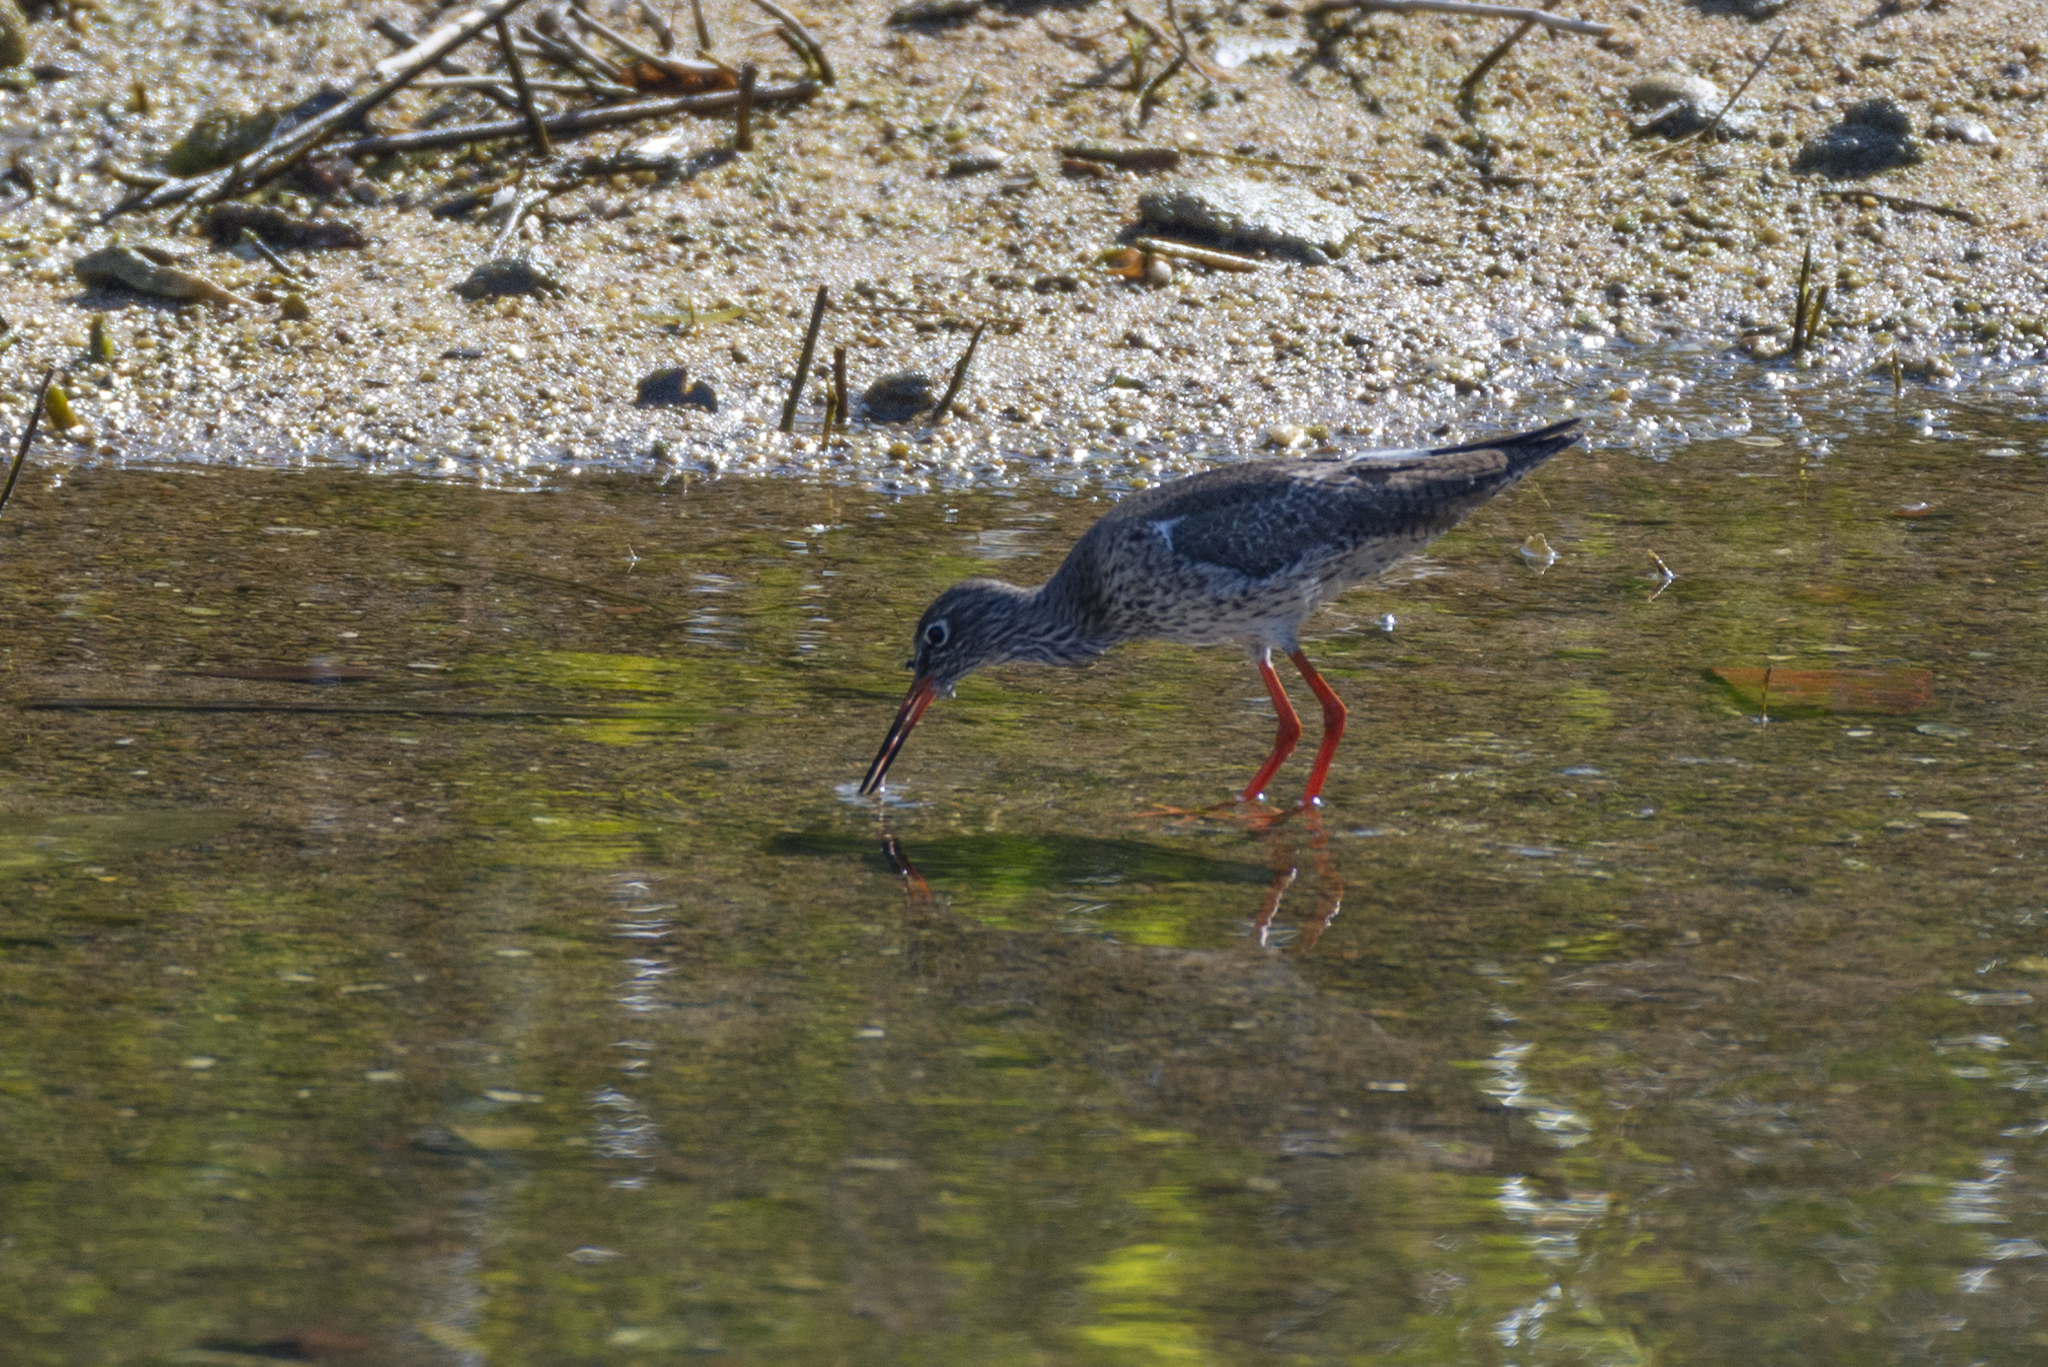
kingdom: Animalia
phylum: Chordata
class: Aves
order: Charadriiformes
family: Scolopacidae
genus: Tringa
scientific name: Tringa totanus
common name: Common redshank
